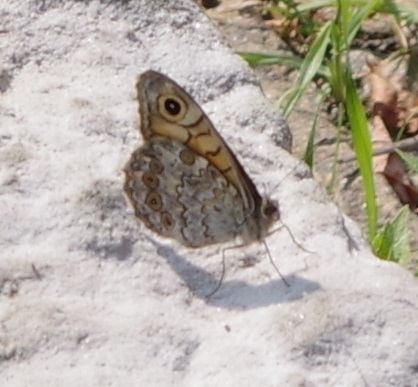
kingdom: Animalia
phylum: Arthropoda
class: Insecta
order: Lepidoptera
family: Nymphalidae
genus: Pararge
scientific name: Pararge Lasiommata megera
